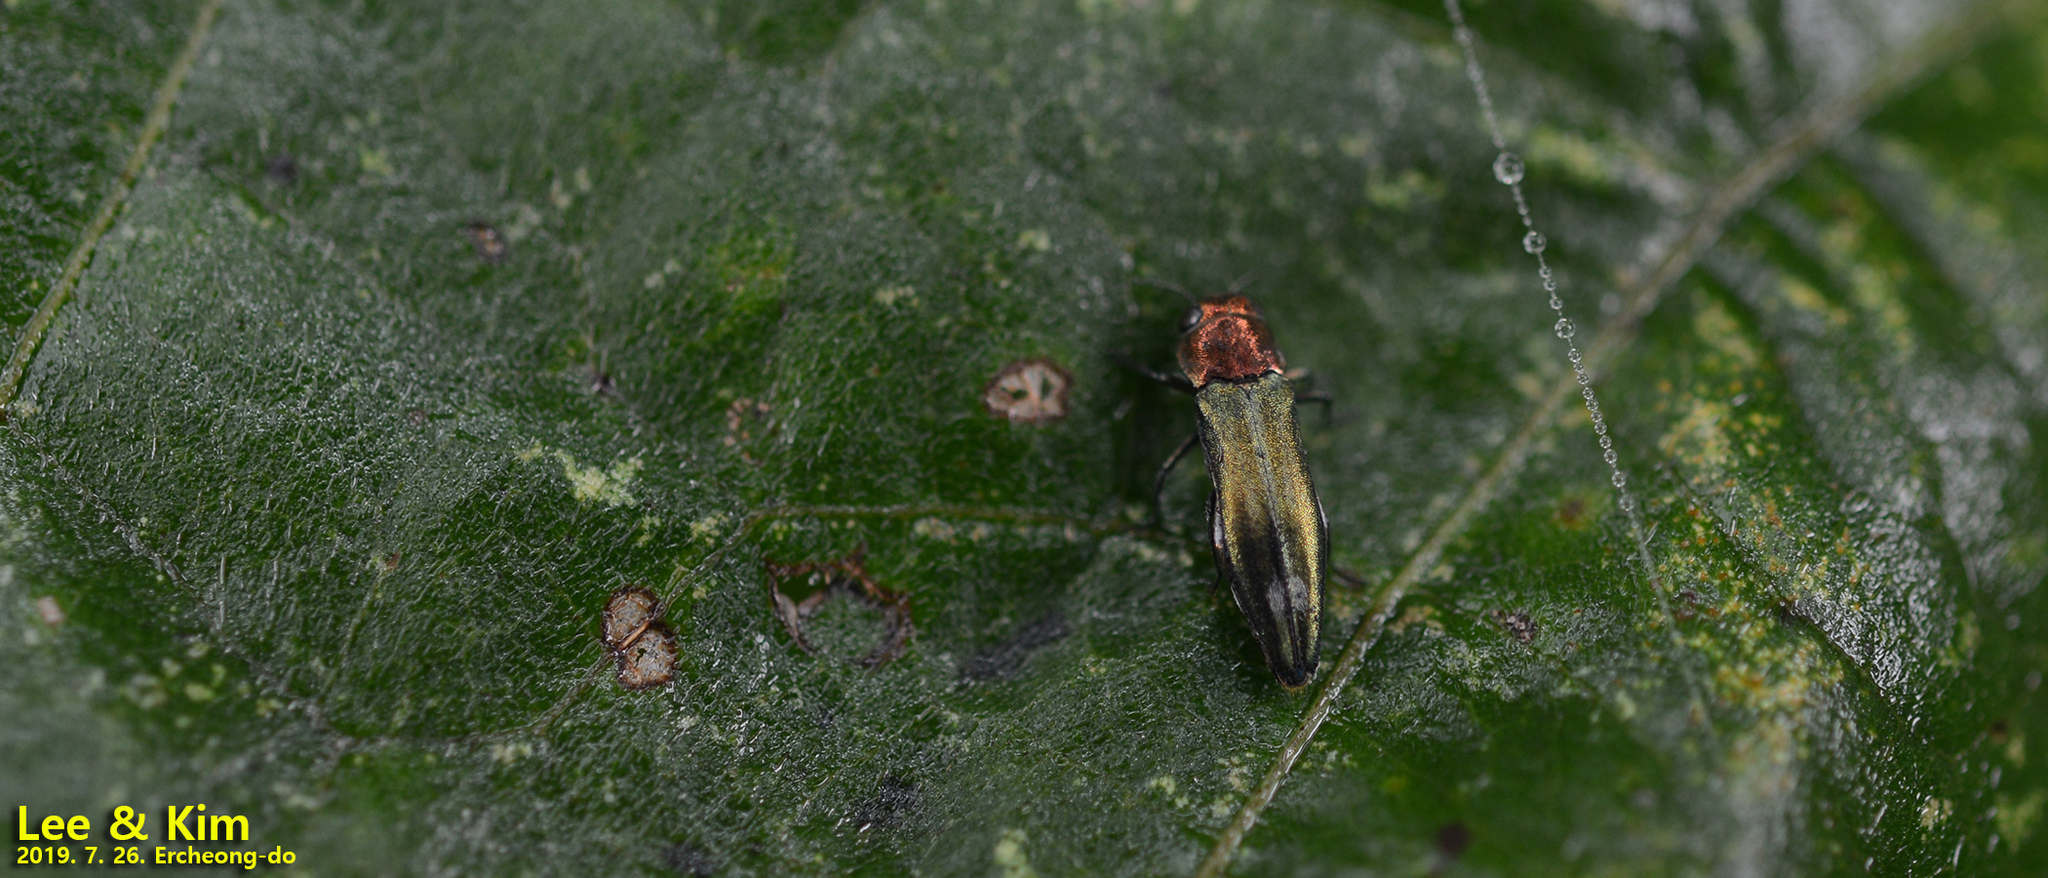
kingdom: Animalia
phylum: Arthropoda
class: Insecta
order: Coleoptera
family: Buprestidae
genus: Agrilus
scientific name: Agrilus chujoi
